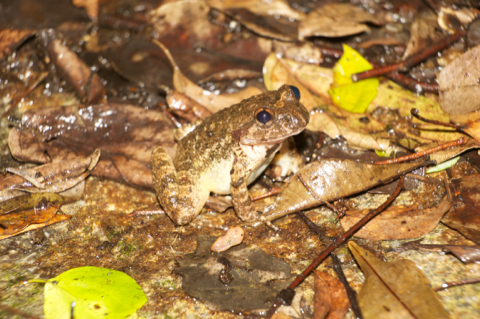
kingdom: Animalia
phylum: Chordata
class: Amphibia
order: Anura
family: Dicroglossidae
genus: Quasipaa
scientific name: Quasipaa exilispinosa
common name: Hong kong paa frog
